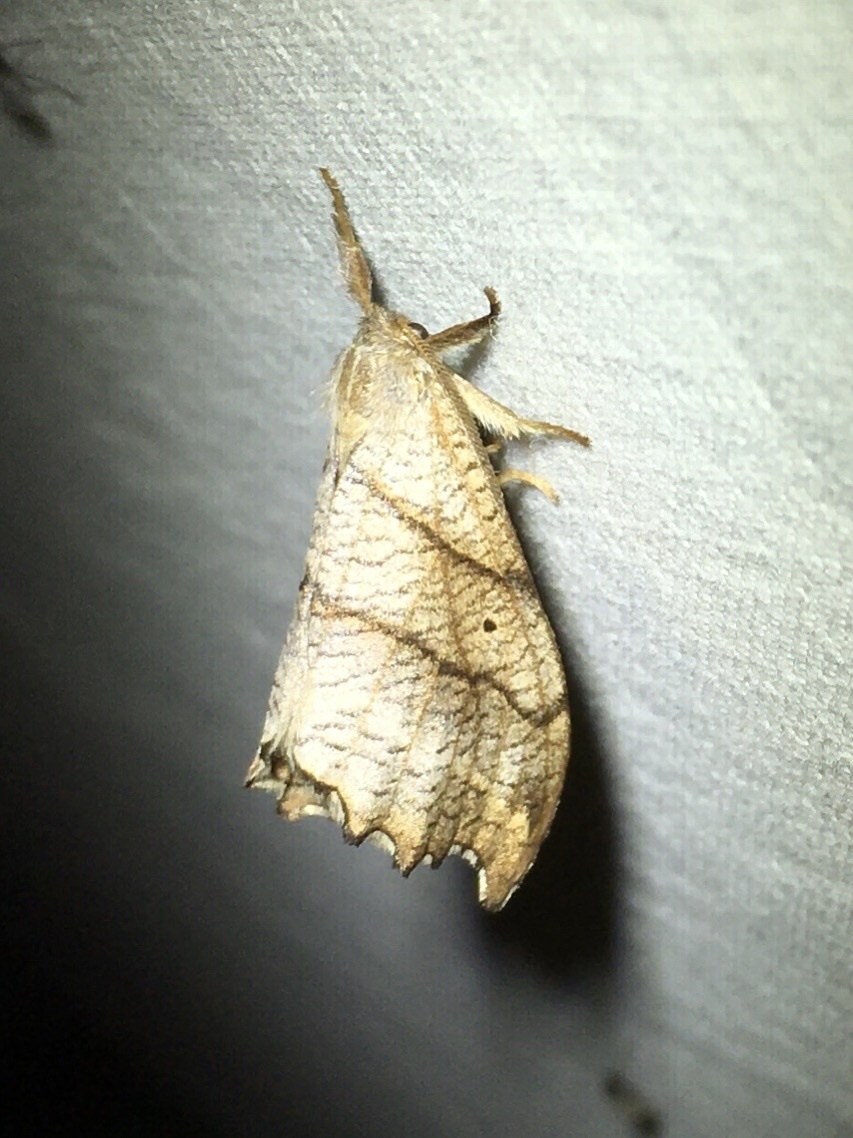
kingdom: Animalia
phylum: Arthropoda
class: Insecta
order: Lepidoptera
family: Drepanidae
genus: Falcaria
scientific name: Falcaria bilineata
